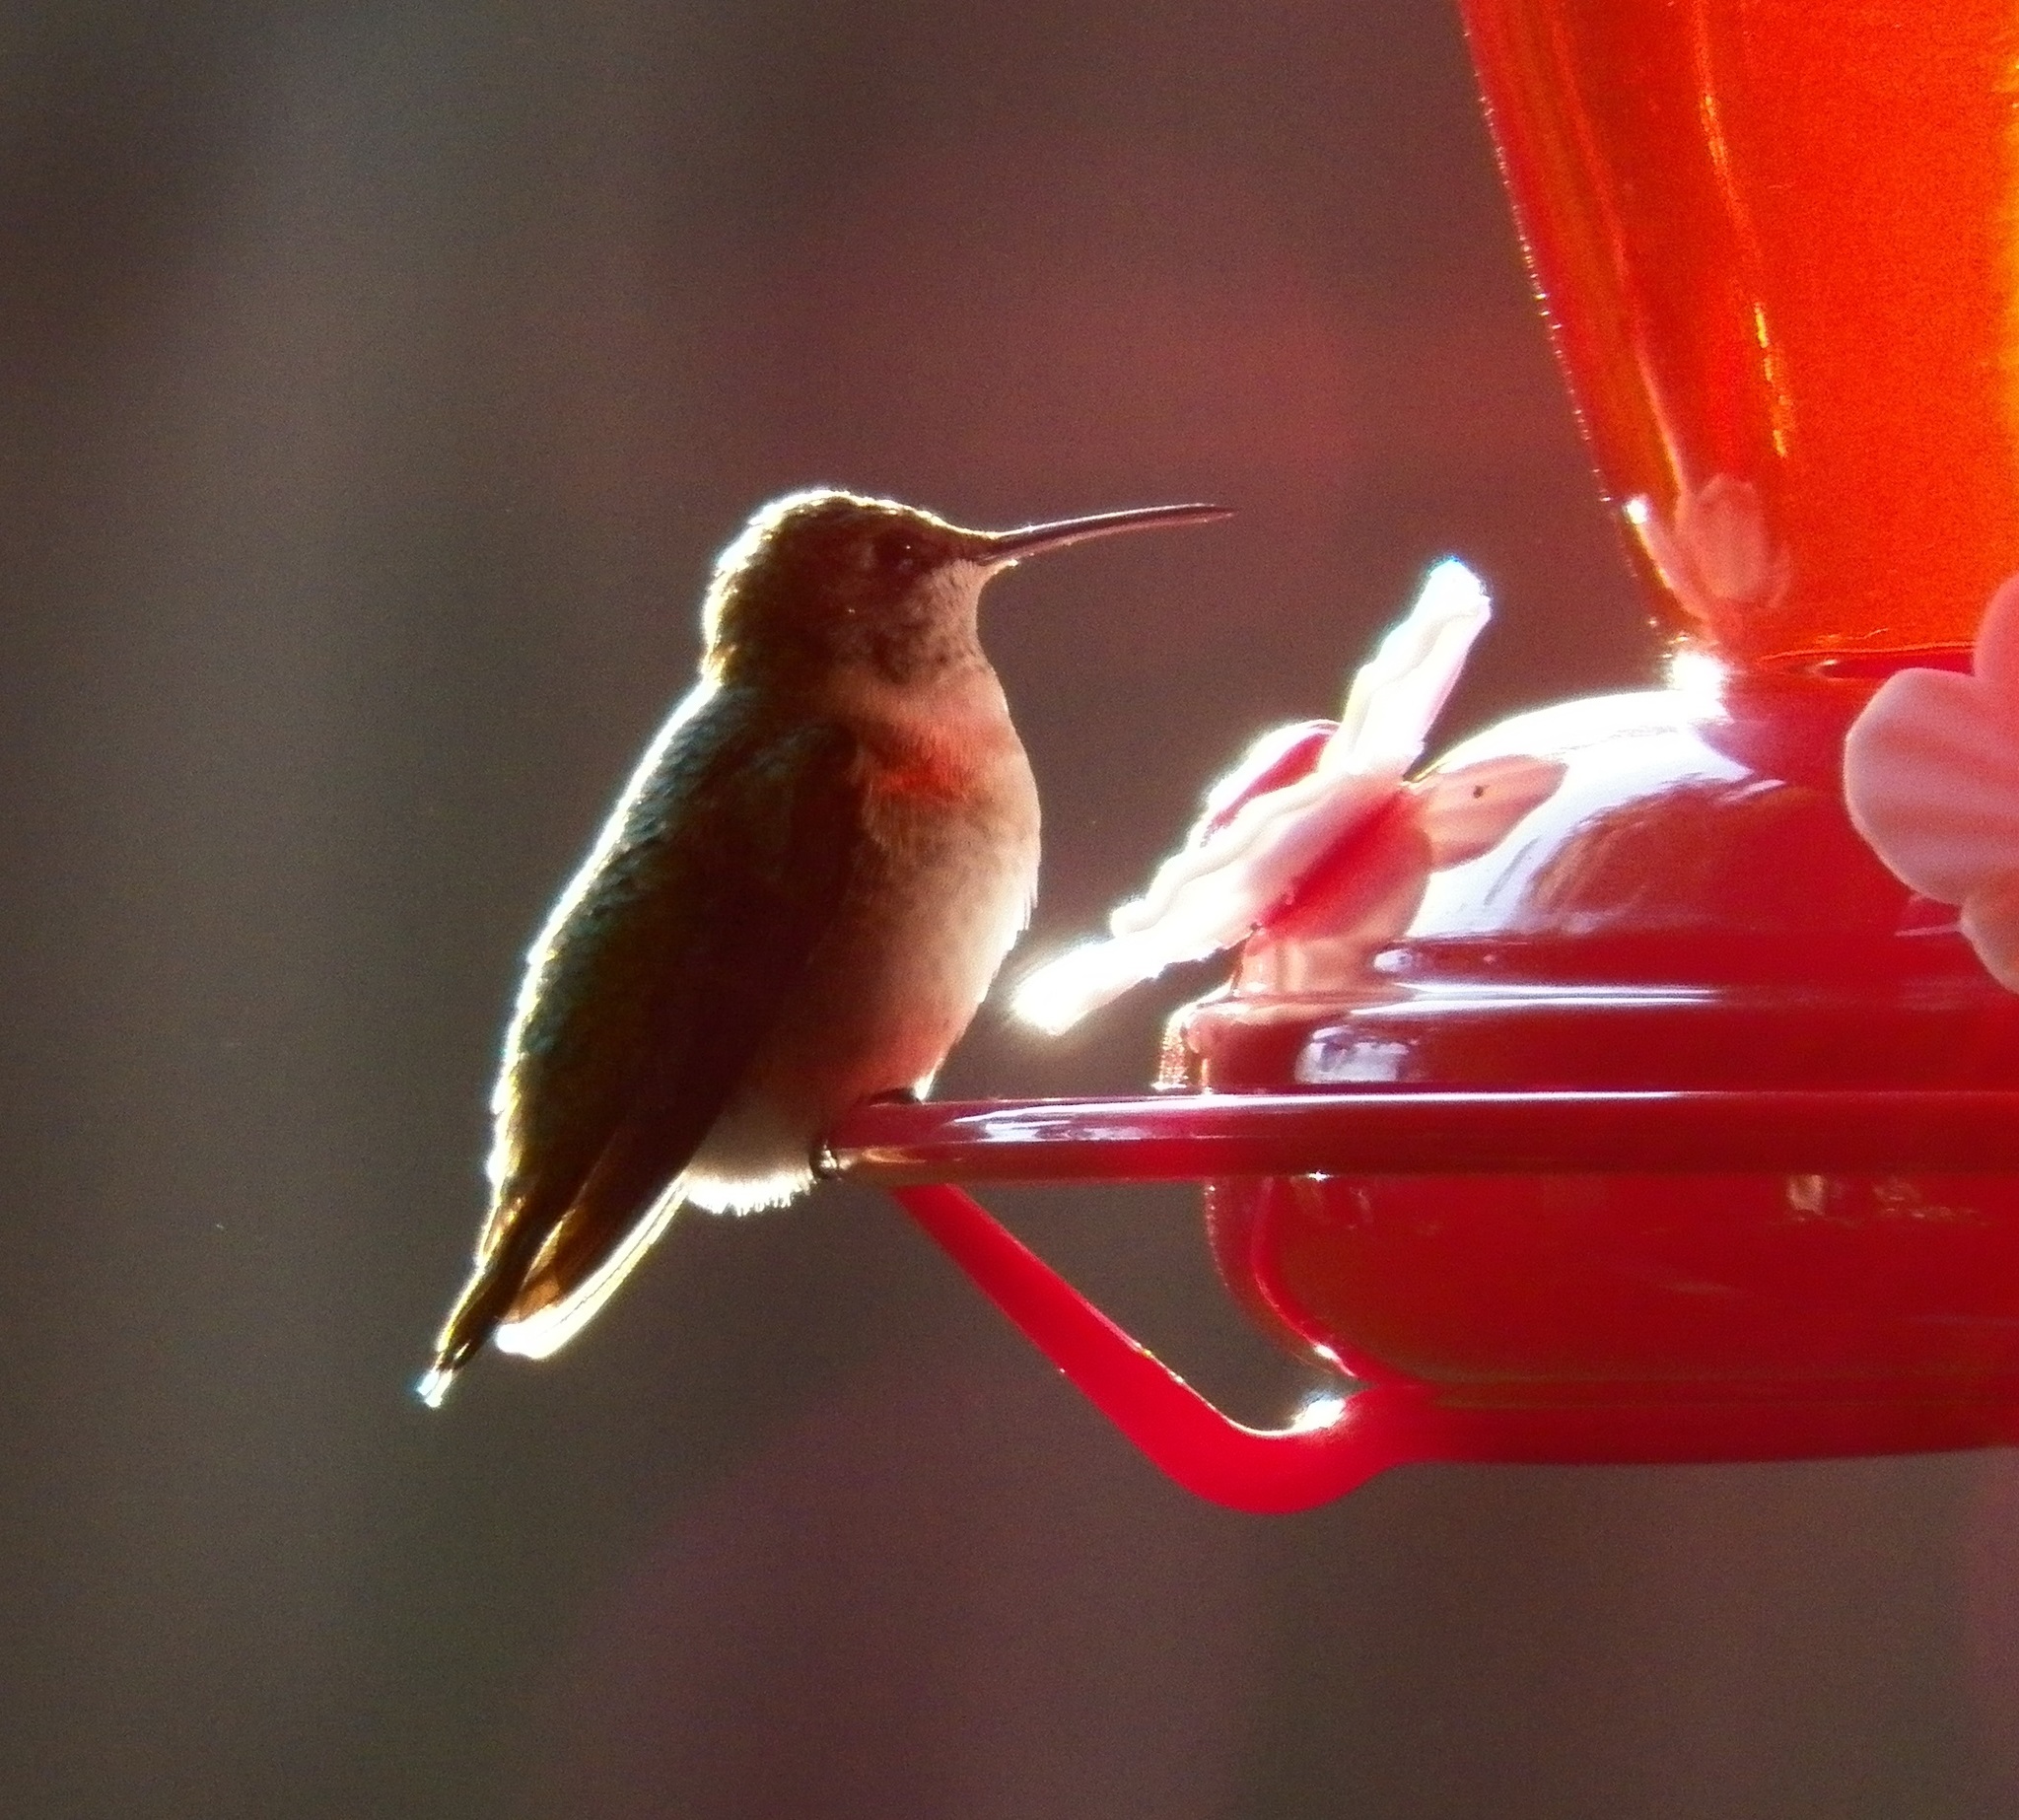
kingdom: Animalia
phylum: Chordata
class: Aves
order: Apodiformes
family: Trochilidae
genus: Archilochus
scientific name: Archilochus colubris
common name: Ruby-throated hummingbird
